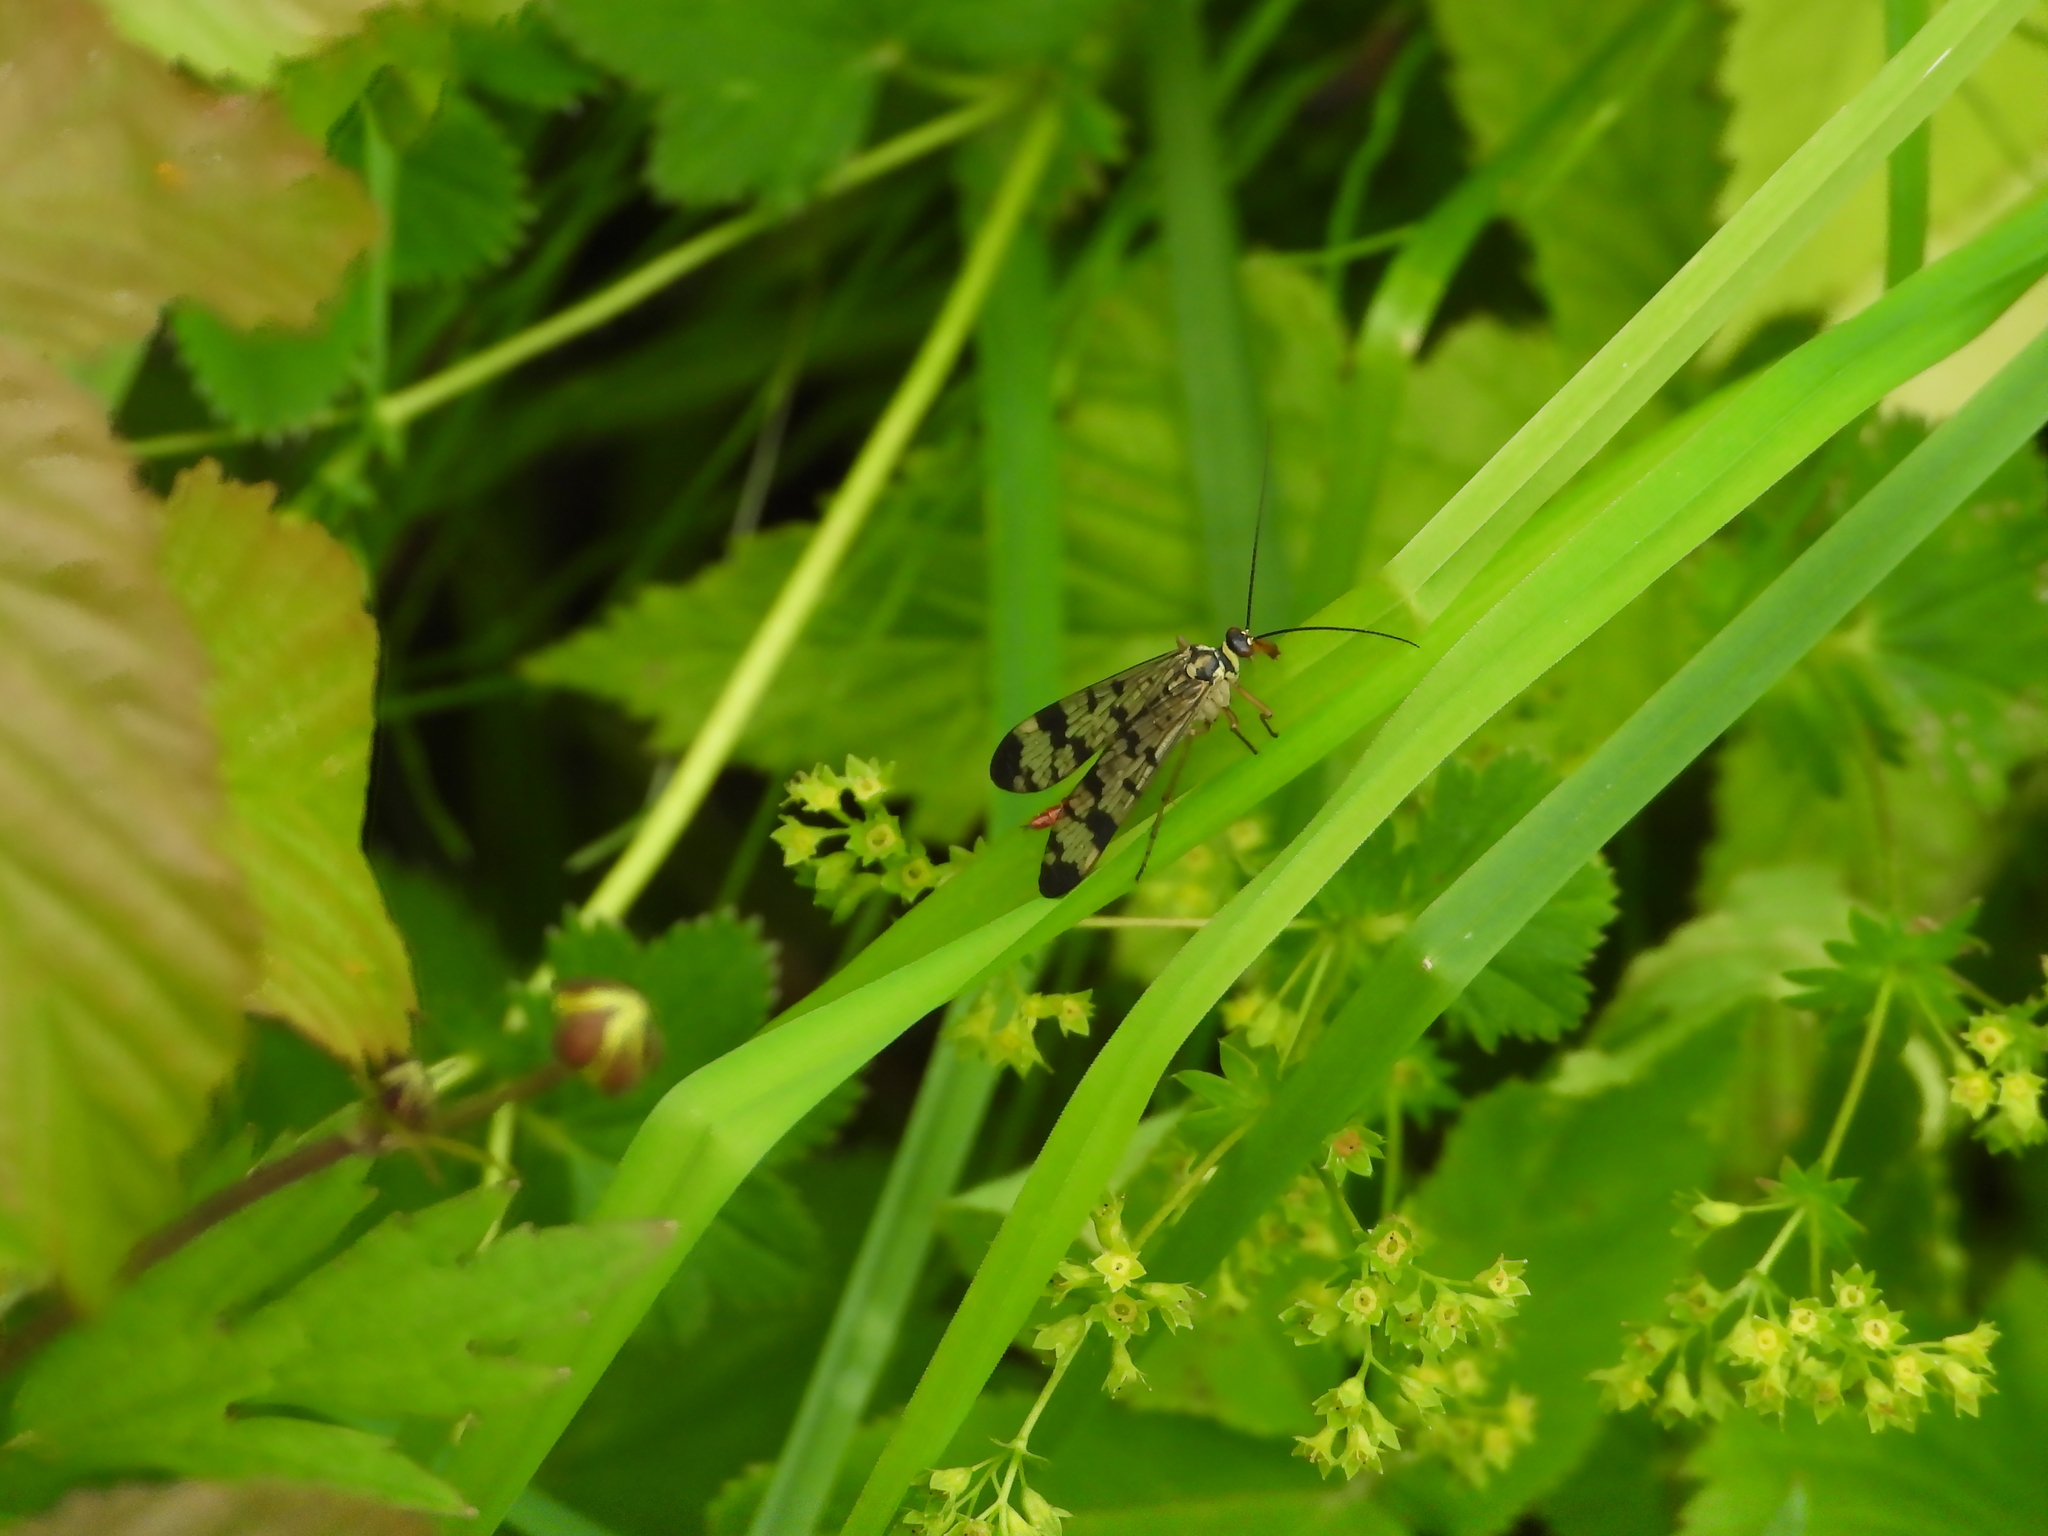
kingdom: Animalia
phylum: Arthropoda
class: Insecta
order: Mecoptera
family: Panorpidae
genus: Panorpa
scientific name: Panorpa communis
